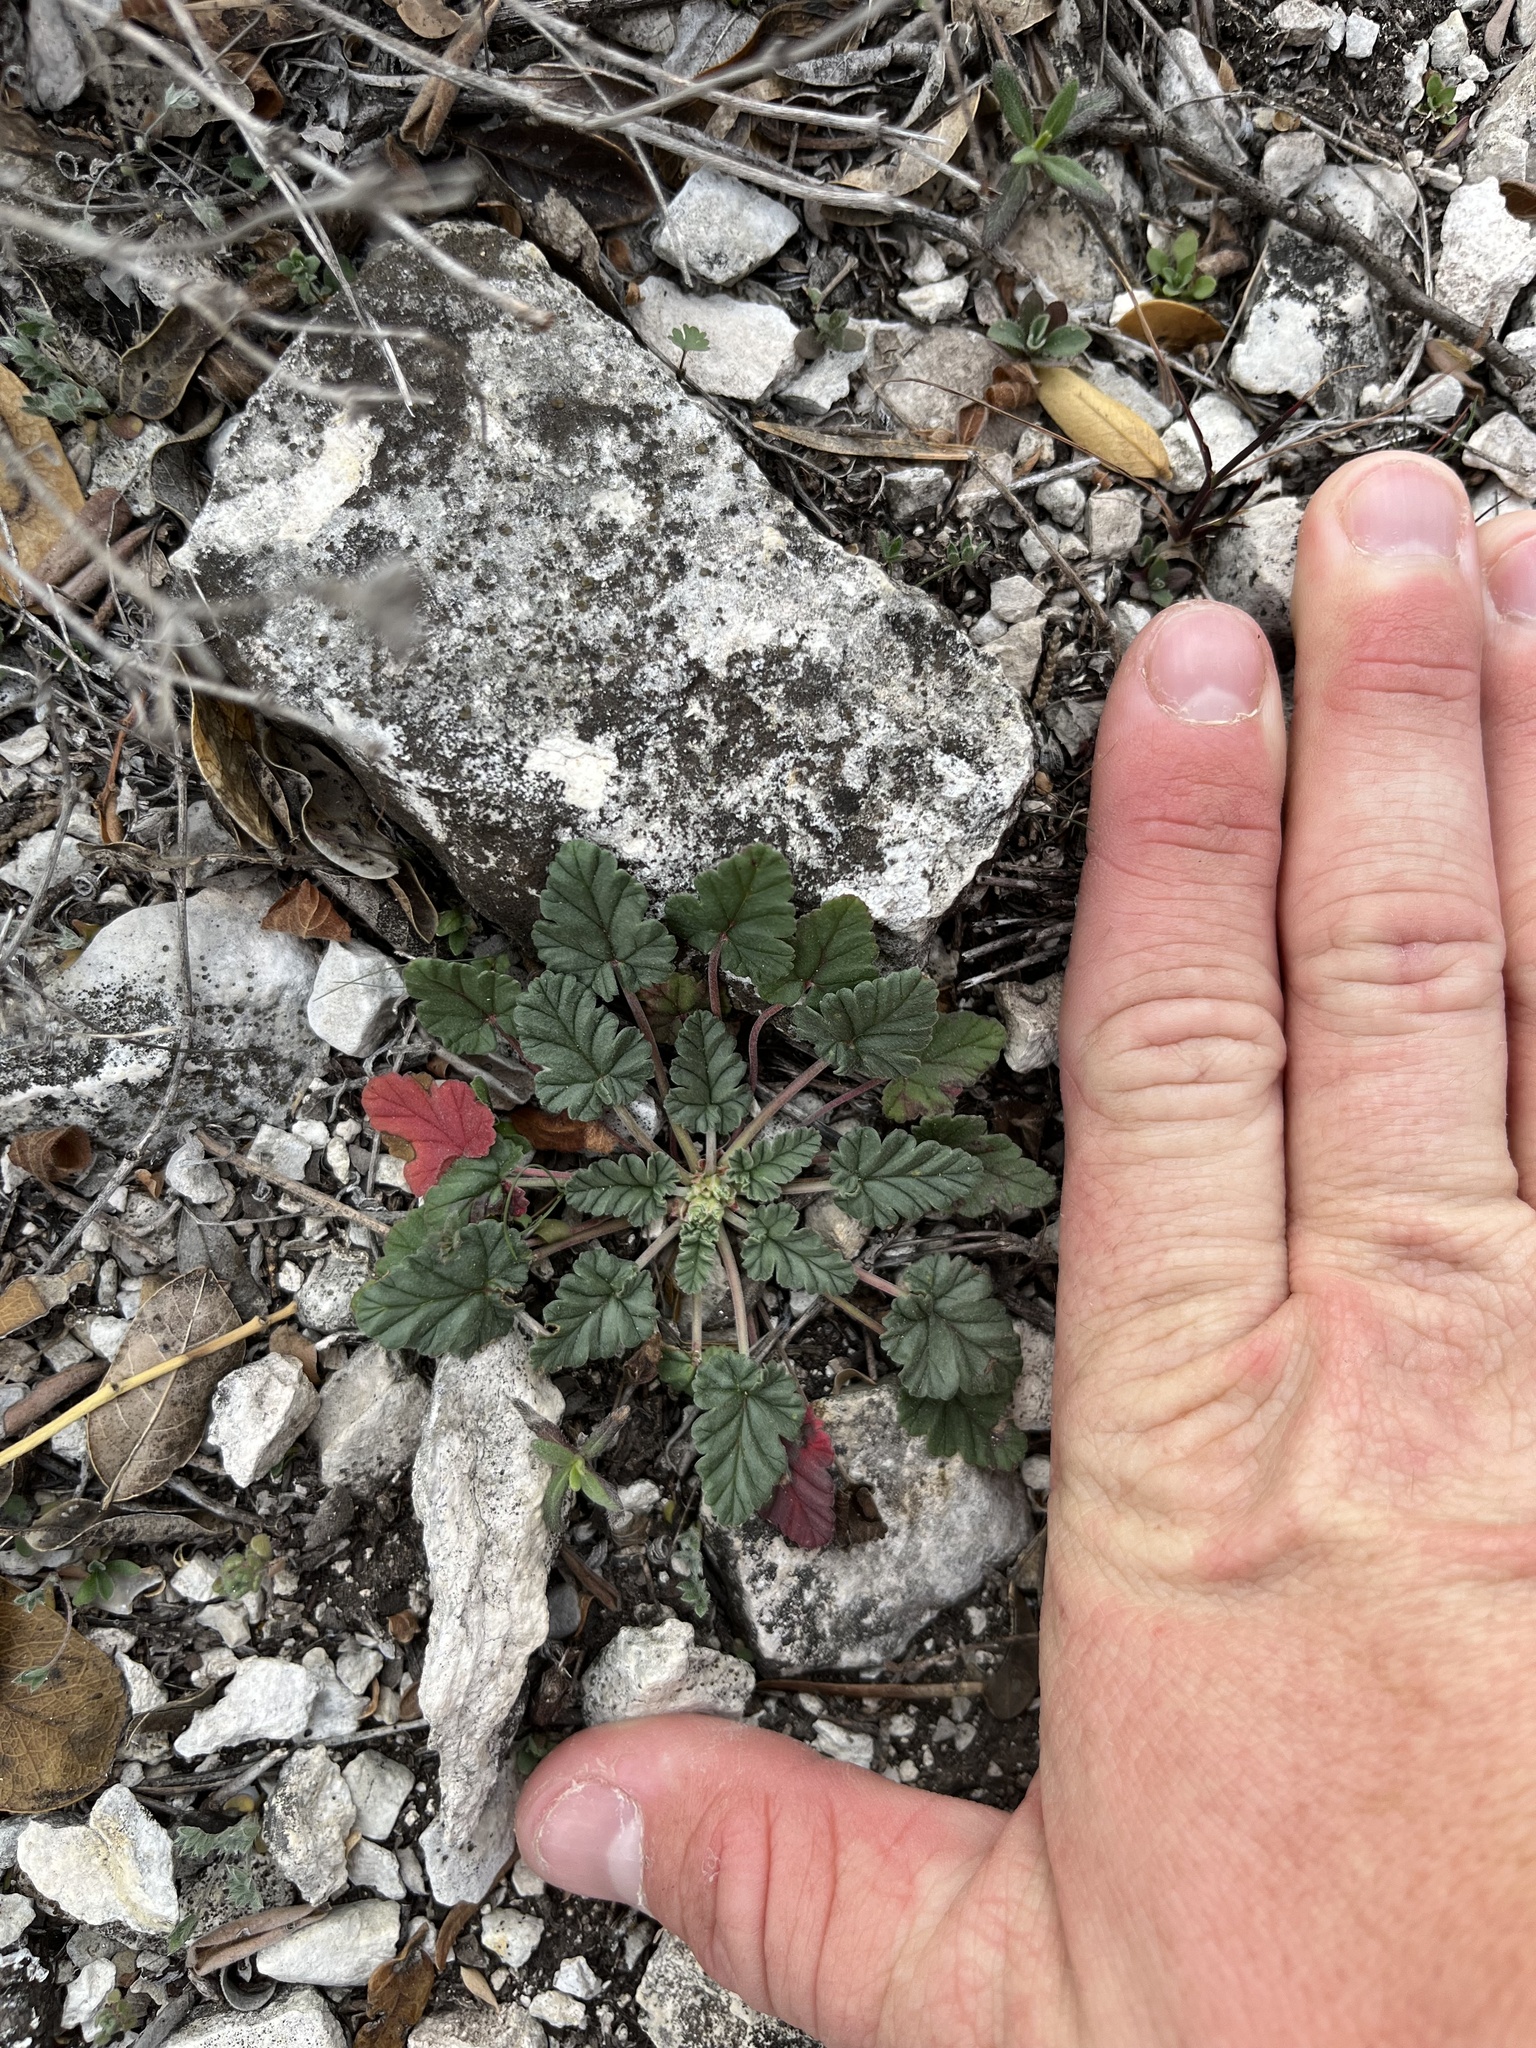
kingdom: Plantae
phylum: Tracheophyta
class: Magnoliopsida
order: Geraniales
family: Geraniaceae
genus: Erodium
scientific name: Erodium texanum
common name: Texas stork's-bill
